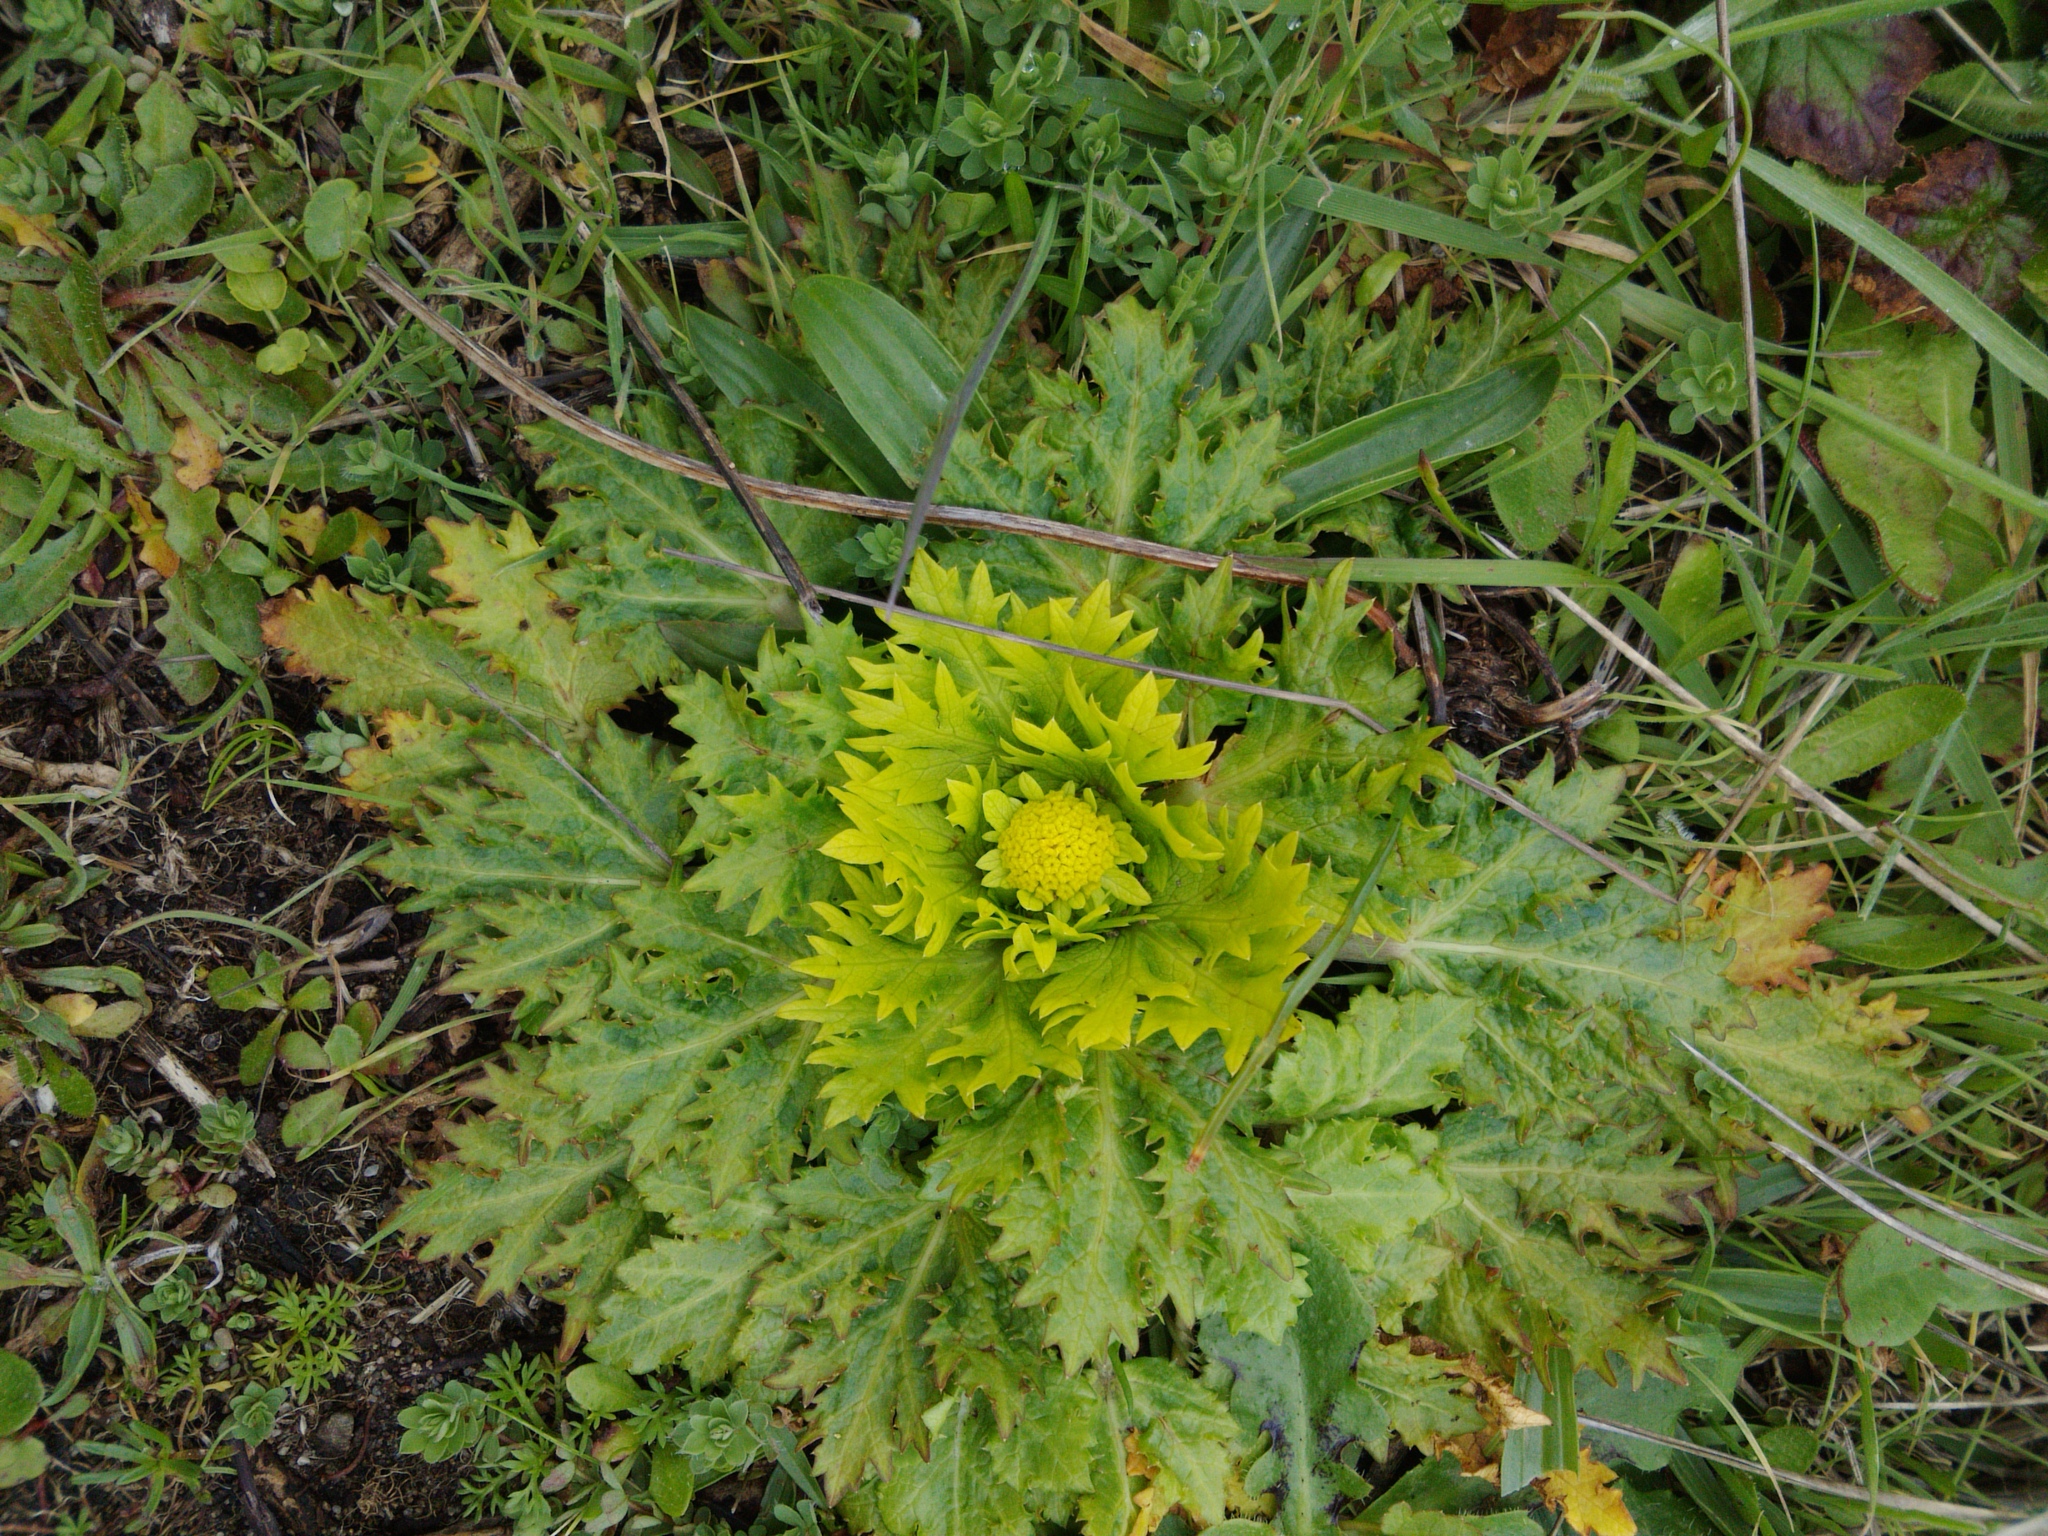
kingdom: Plantae
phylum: Tracheophyta
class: Magnoliopsida
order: Apiales
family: Apiaceae
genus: Sanicula
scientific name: Sanicula arctopoides
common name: Footsteps-of-spring
